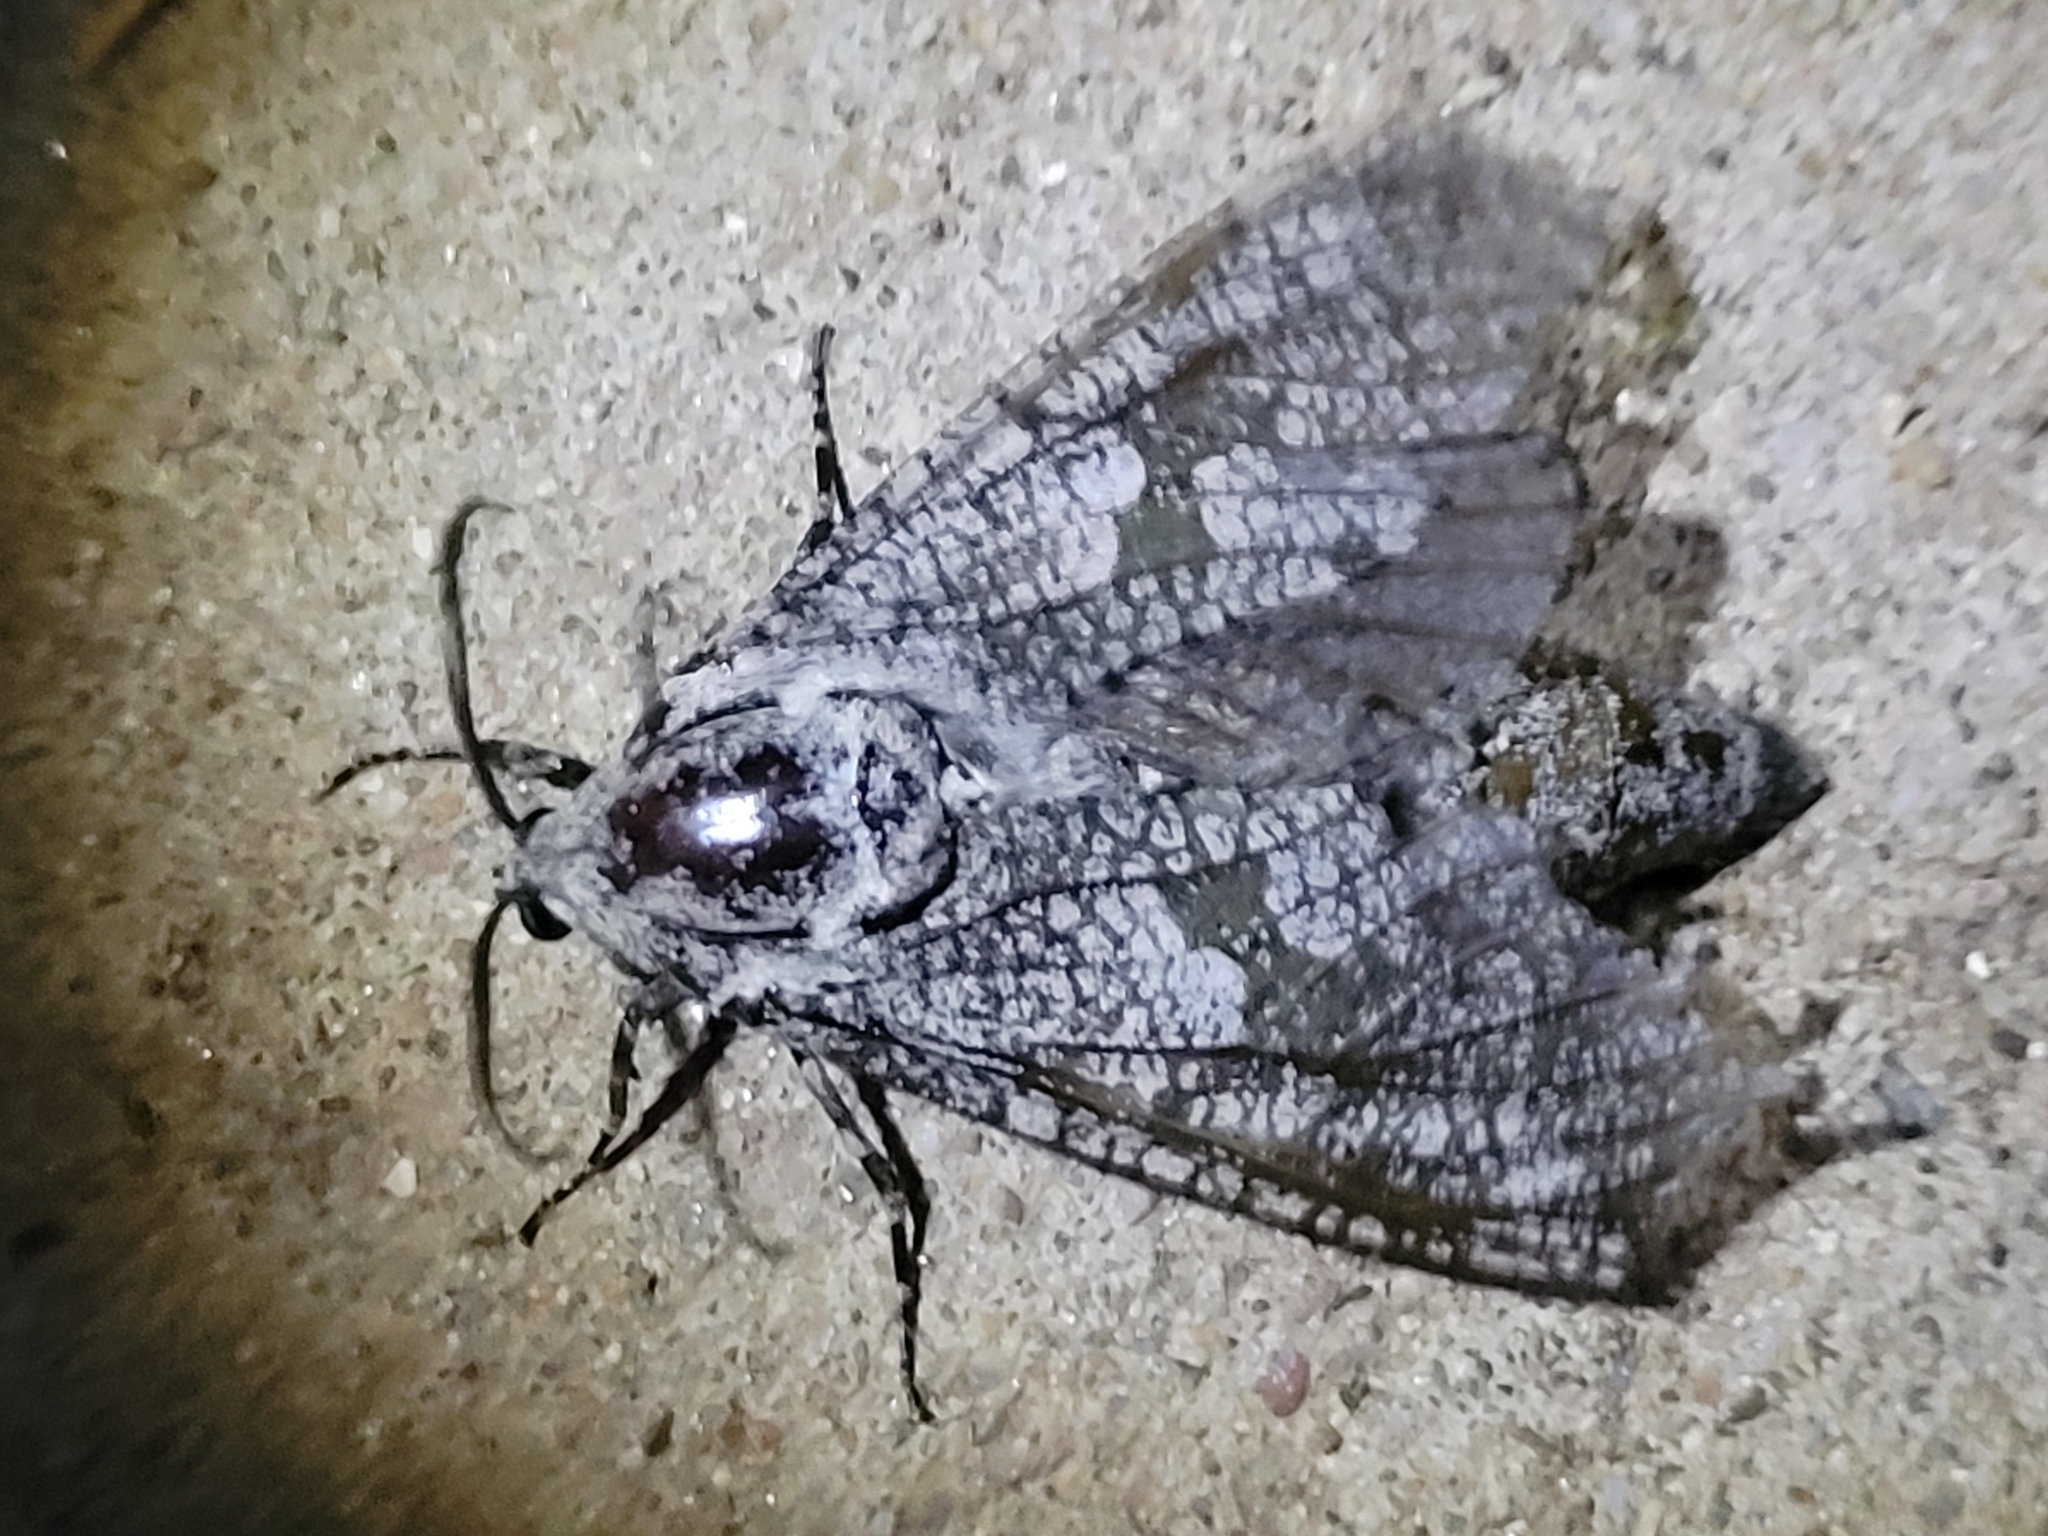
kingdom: Animalia
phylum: Arthropoda
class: Insecta
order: Lepidoptera
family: Cossidae
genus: Prionoxystus
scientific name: Prionoxystus robiniae
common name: Carpenterworm
